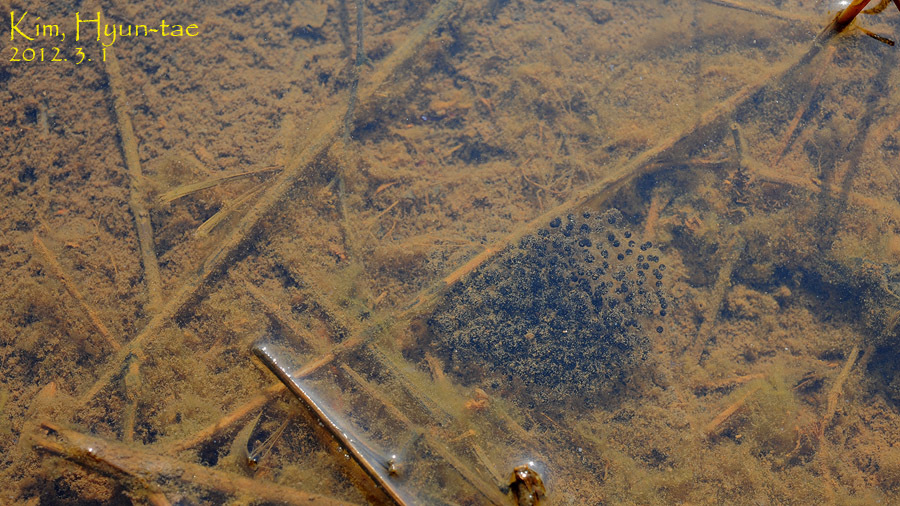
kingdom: Animalia
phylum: Chordata
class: Amphibia
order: Anura
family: Ranidae
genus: Rana
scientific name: Rana coreana
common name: Korean brown frog
